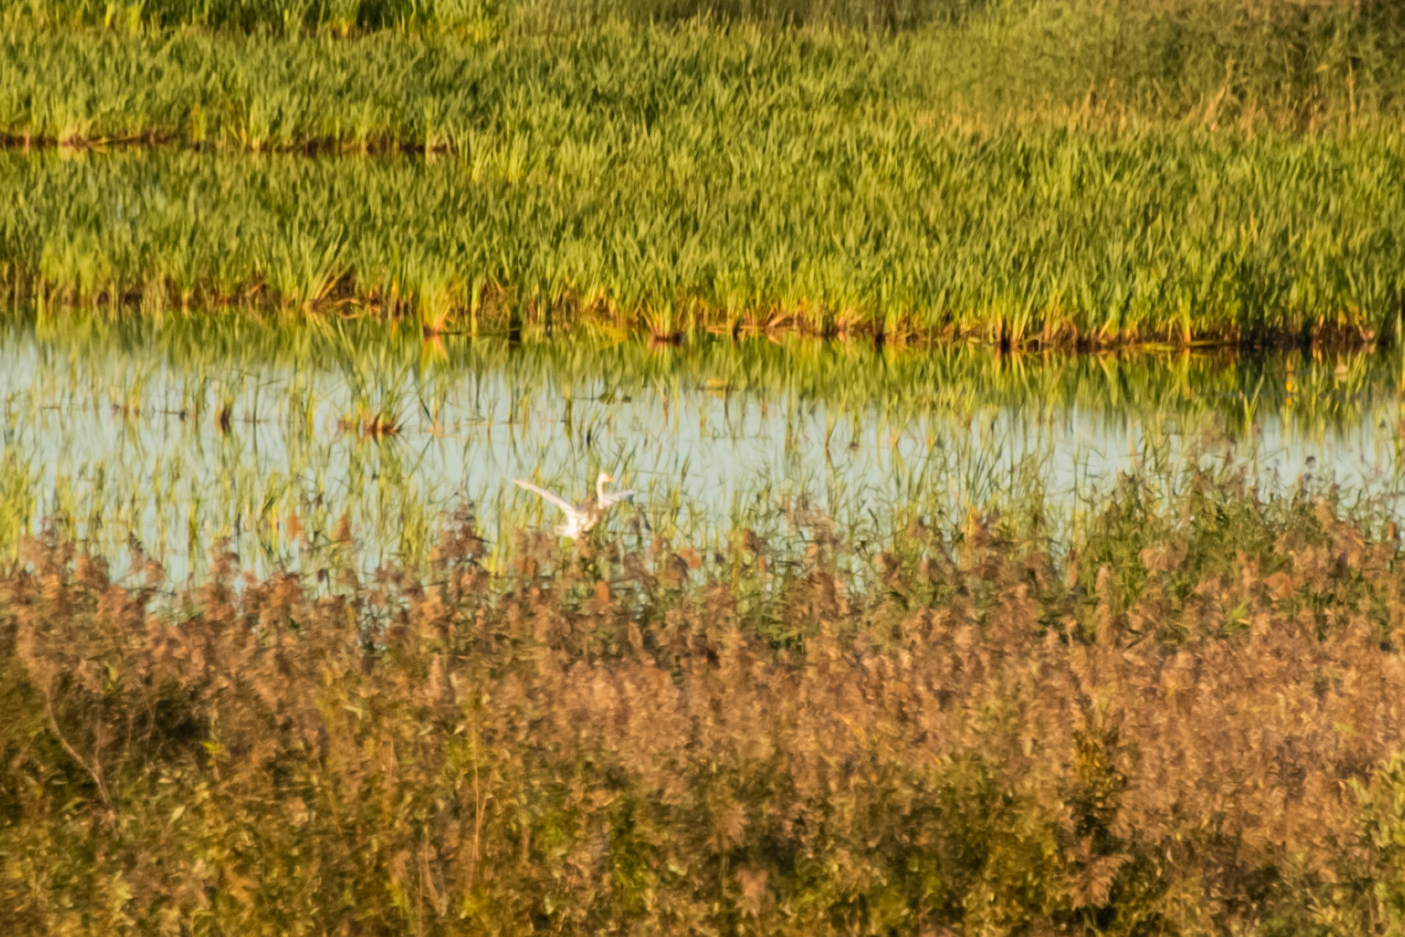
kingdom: Animalia
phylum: Chordata
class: Aves
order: Pelecaniformes
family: Ardeidae
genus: Ardea
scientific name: Ardea alba
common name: Great egret
